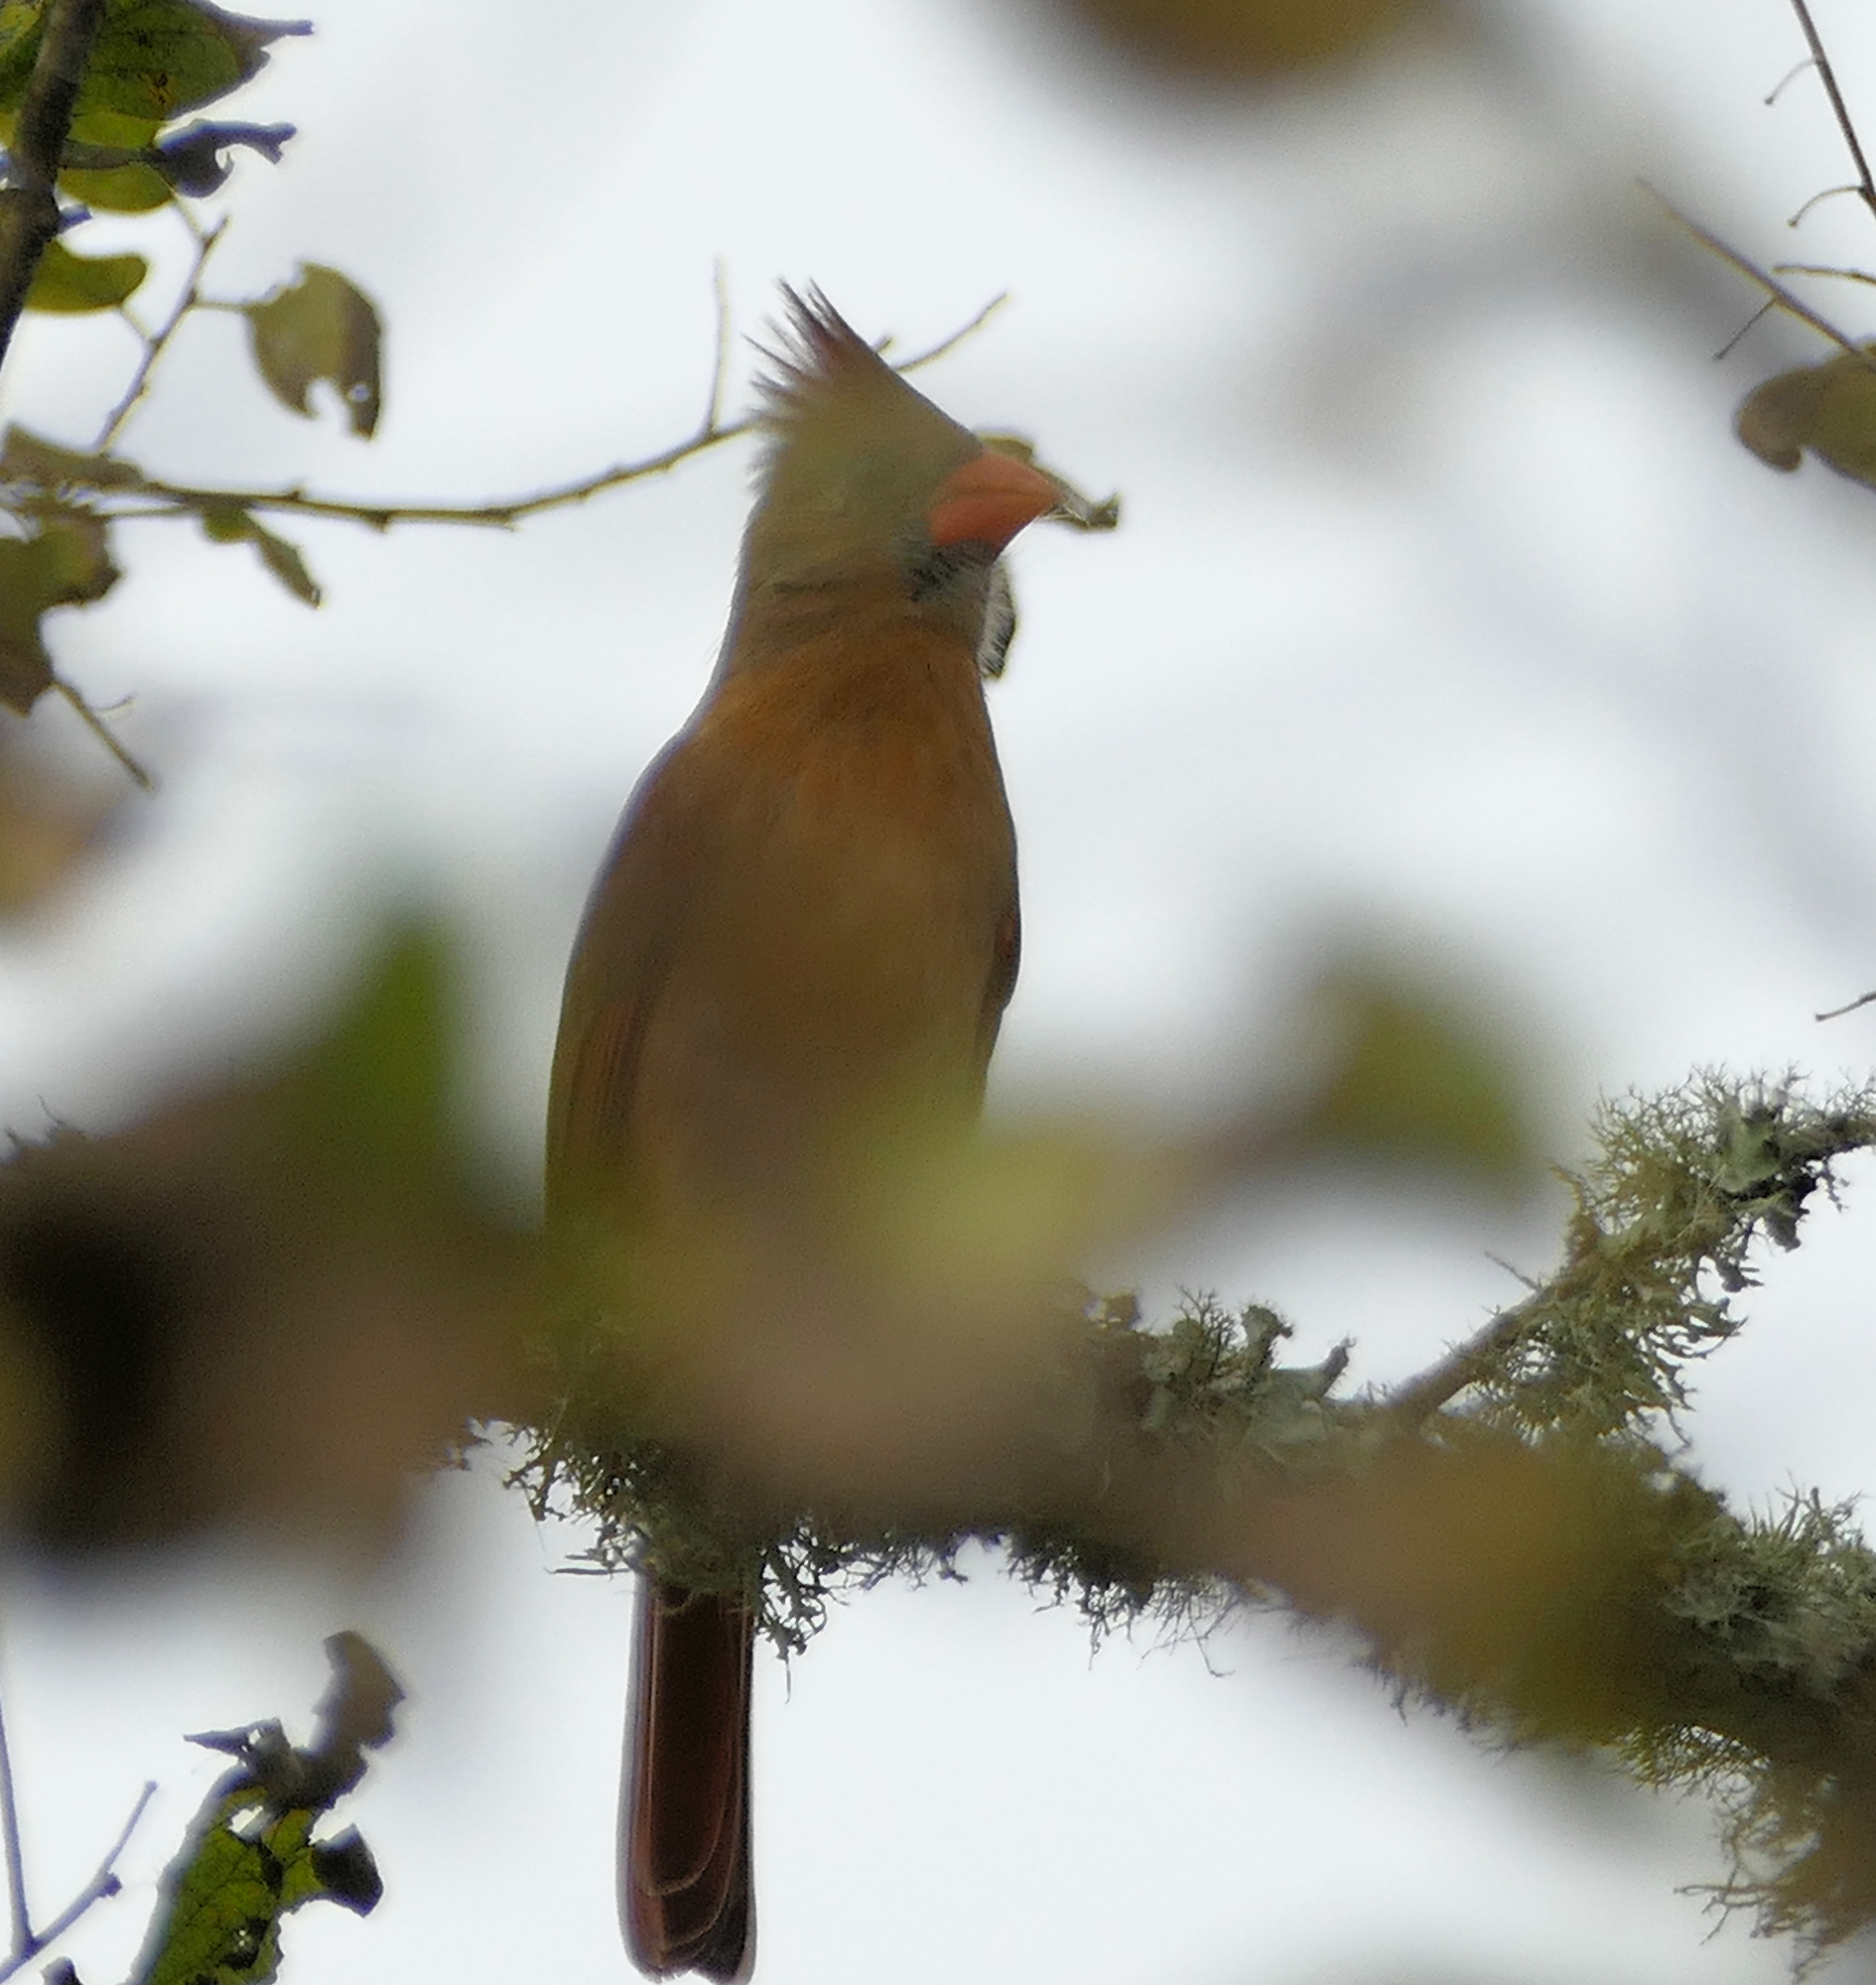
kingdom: Animalia
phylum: Chordata
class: Aves
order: Passeriformes
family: Cardinalidae
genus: Cardinalis
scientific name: Cardinalis cardinalis
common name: Northern cardinal
